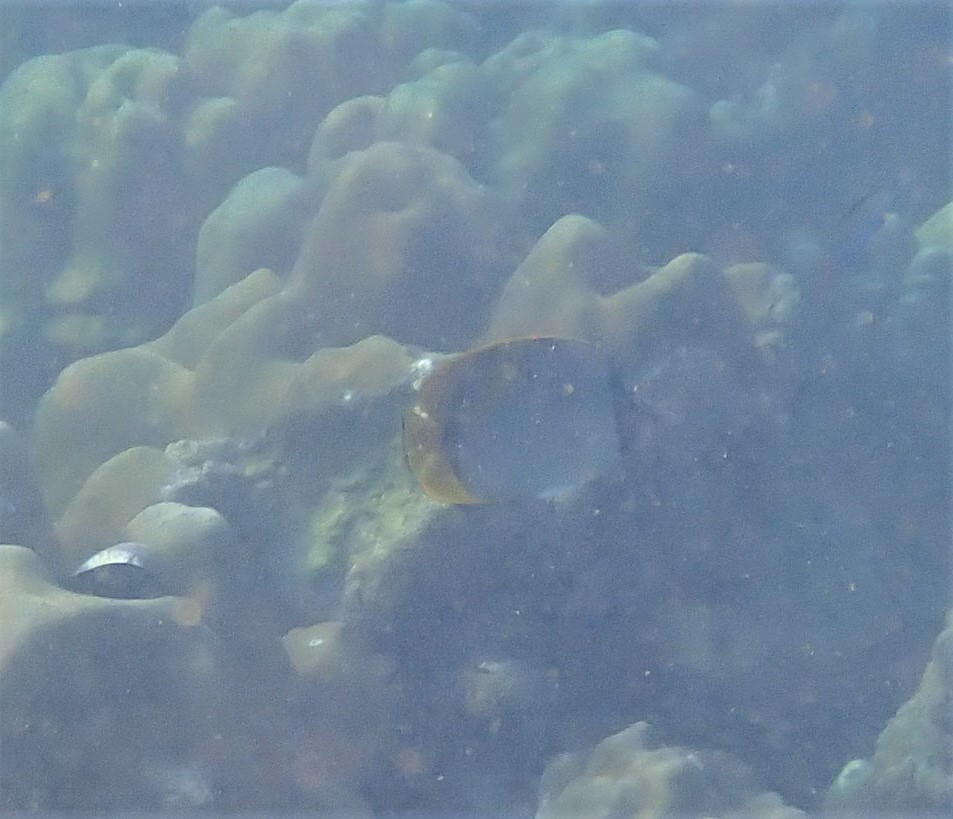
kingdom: Animalia
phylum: Chordata
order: Perciformes
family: Chaetodontidae
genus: Chaetodon
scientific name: Chaetodon lineolatus
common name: Lined butterflyfish
